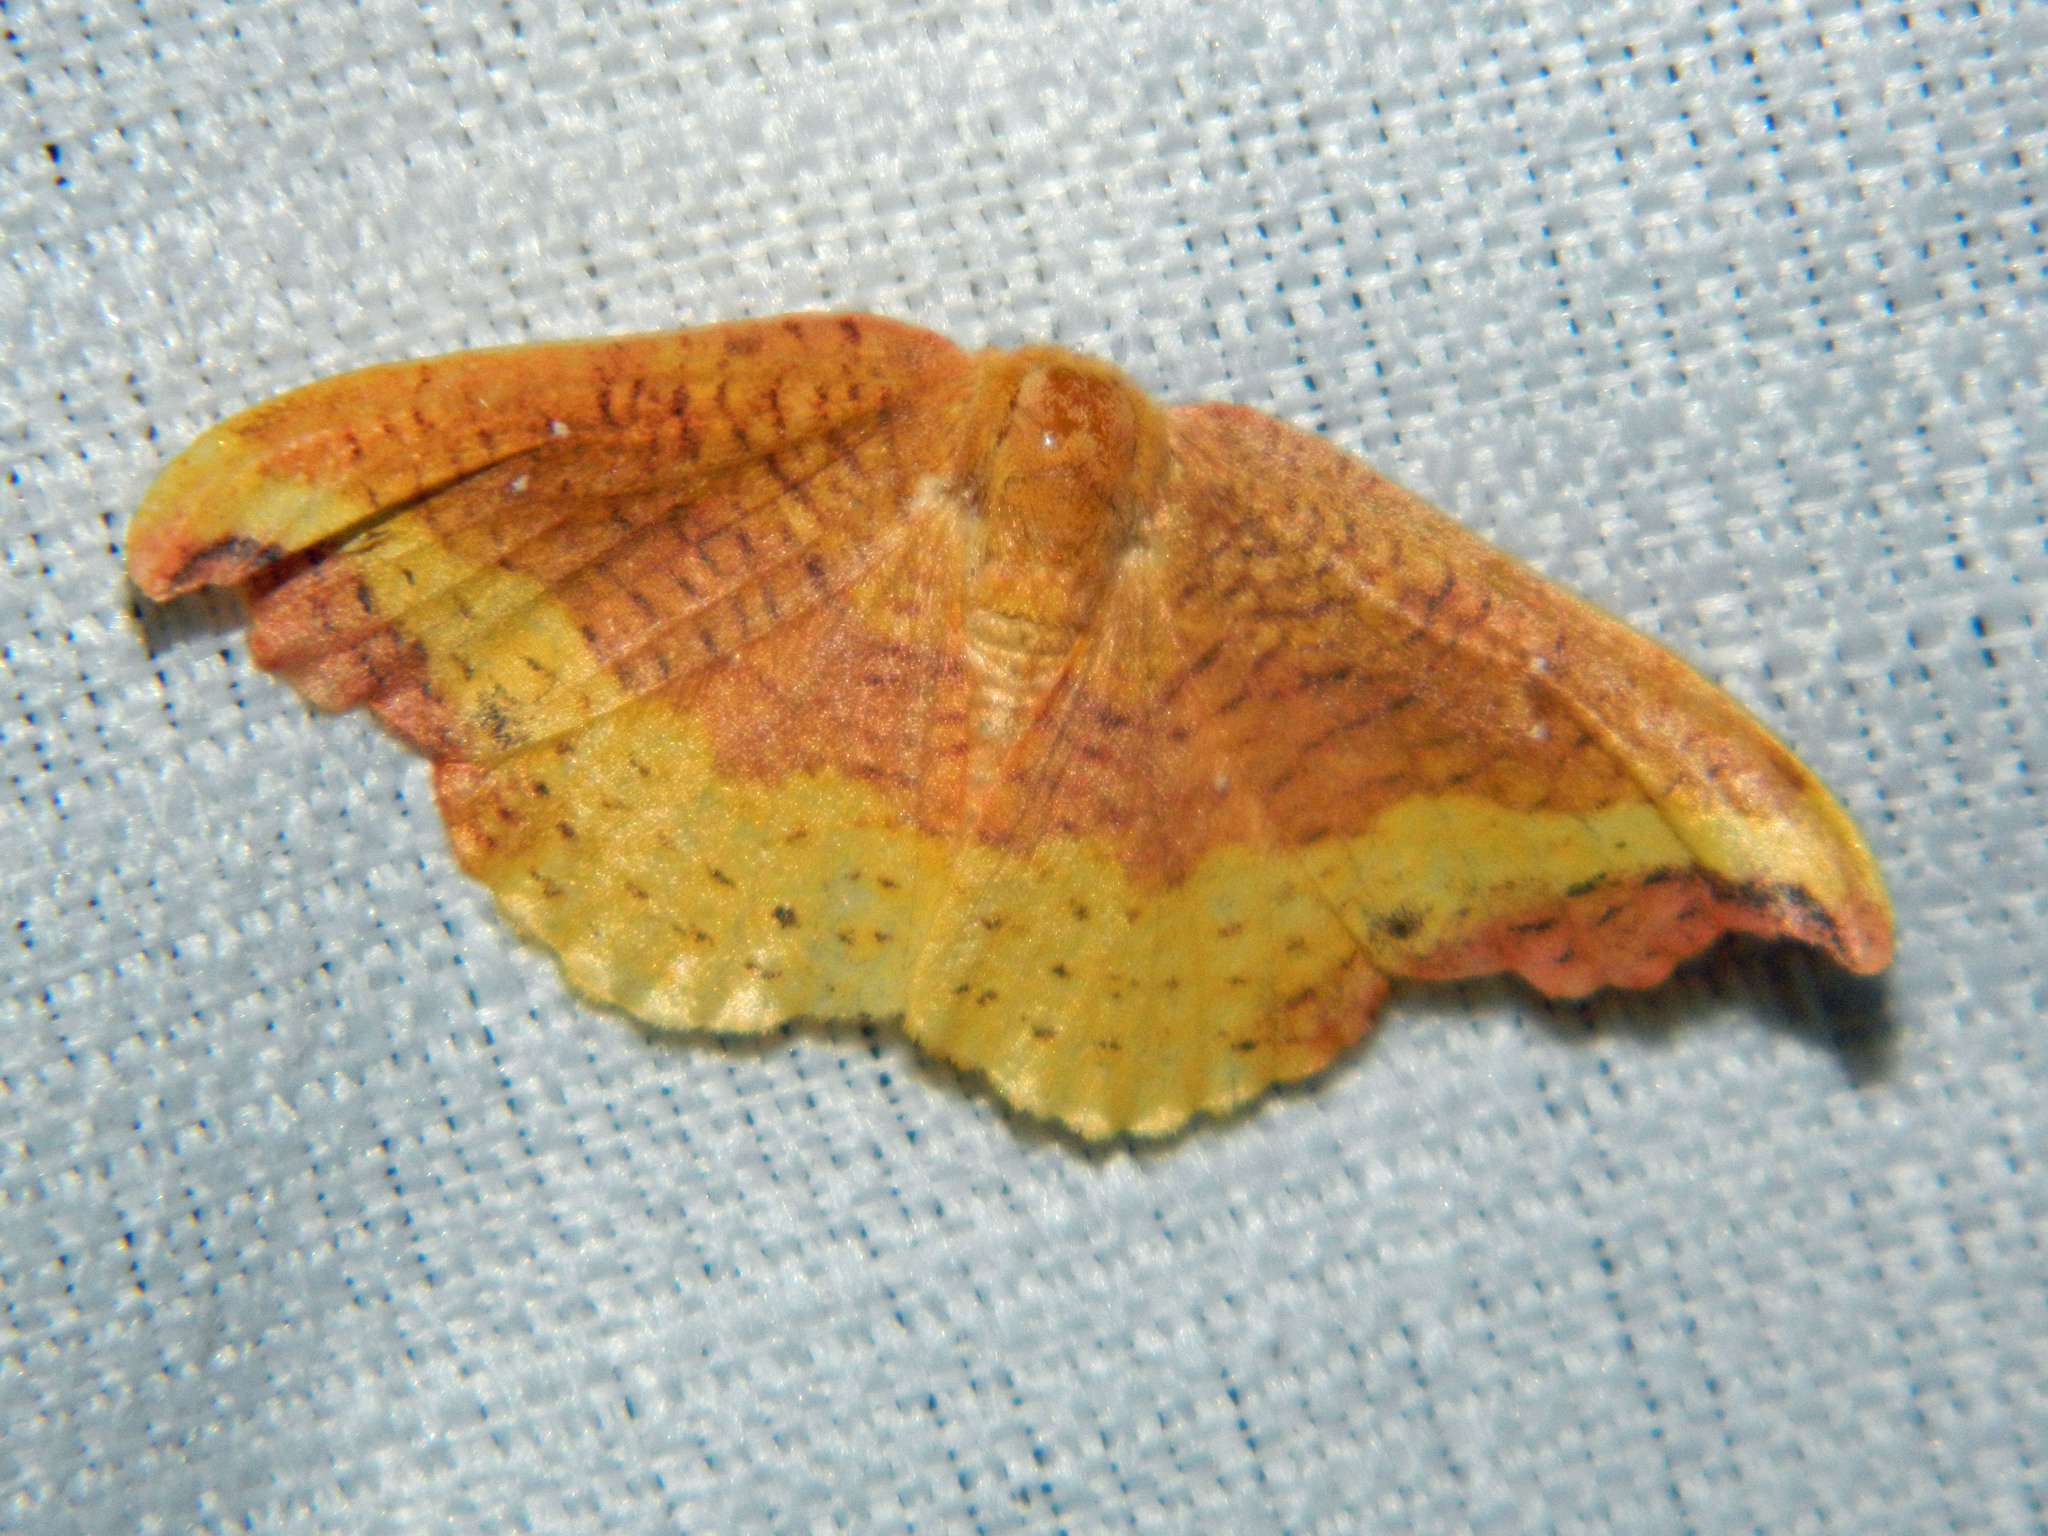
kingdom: Animalia
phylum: Arthropoda
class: Insecta
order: Lepidoptera
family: Drepanidae
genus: Oreta
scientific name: Oreta rosea
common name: Rose hooktip
